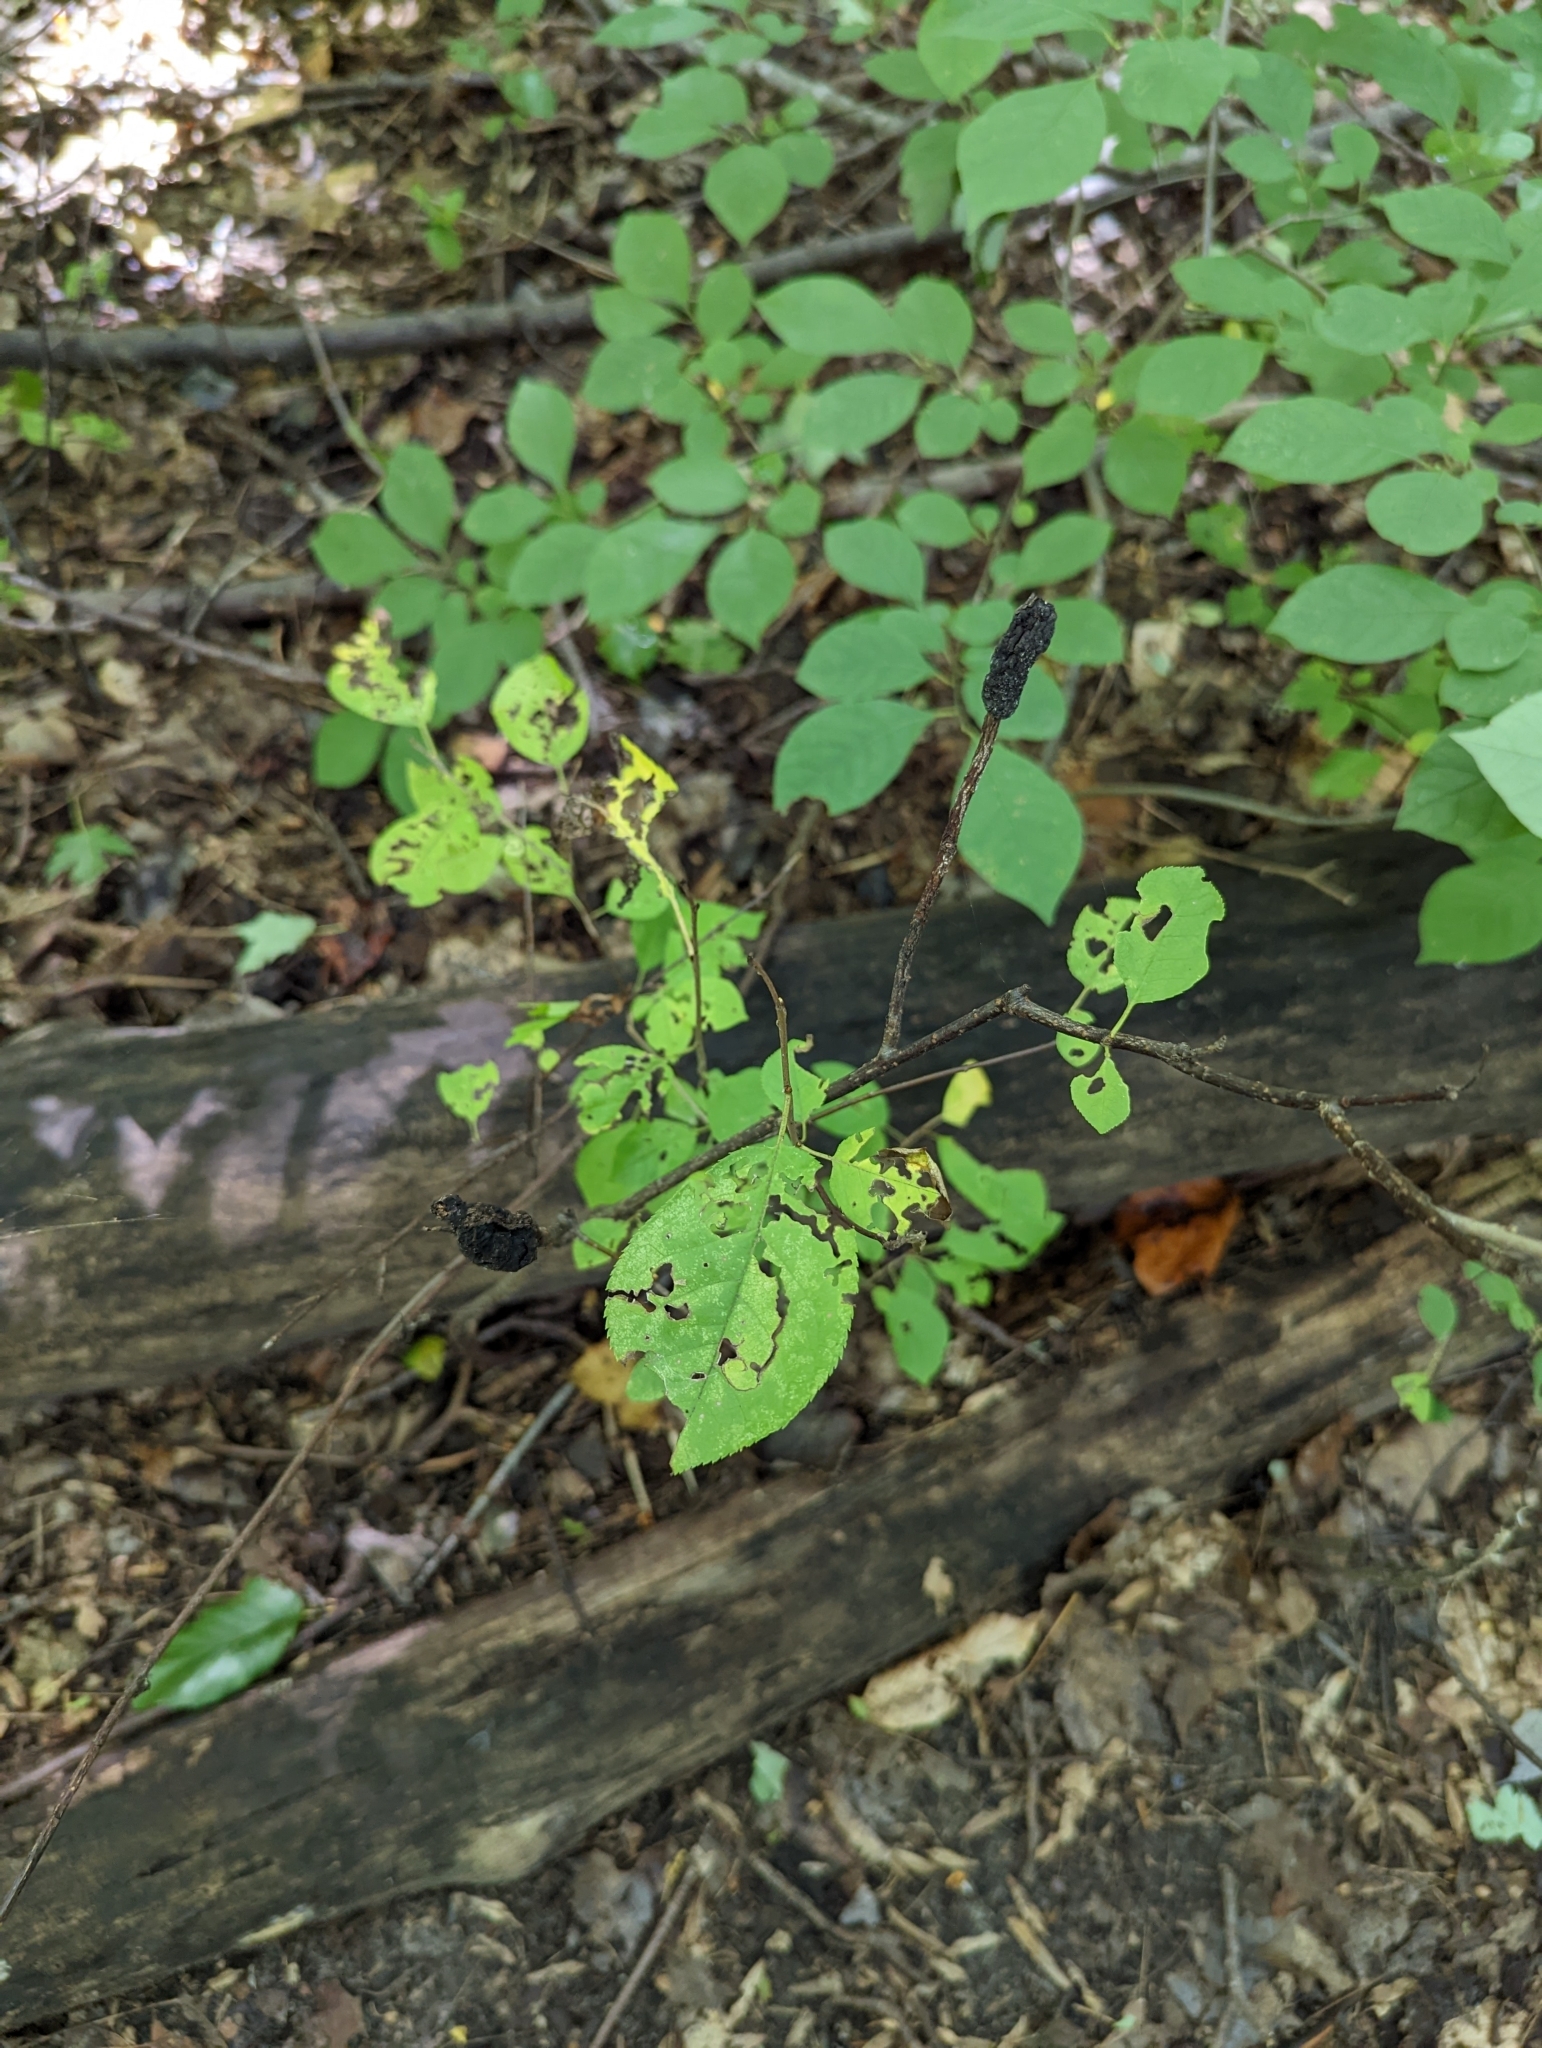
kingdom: Fungi
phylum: Ascomycota
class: Dothideomycetes
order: Venturiales
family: Venturiaceae
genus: Apiosporina
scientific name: Apiosporina morbosa
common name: Black knot
